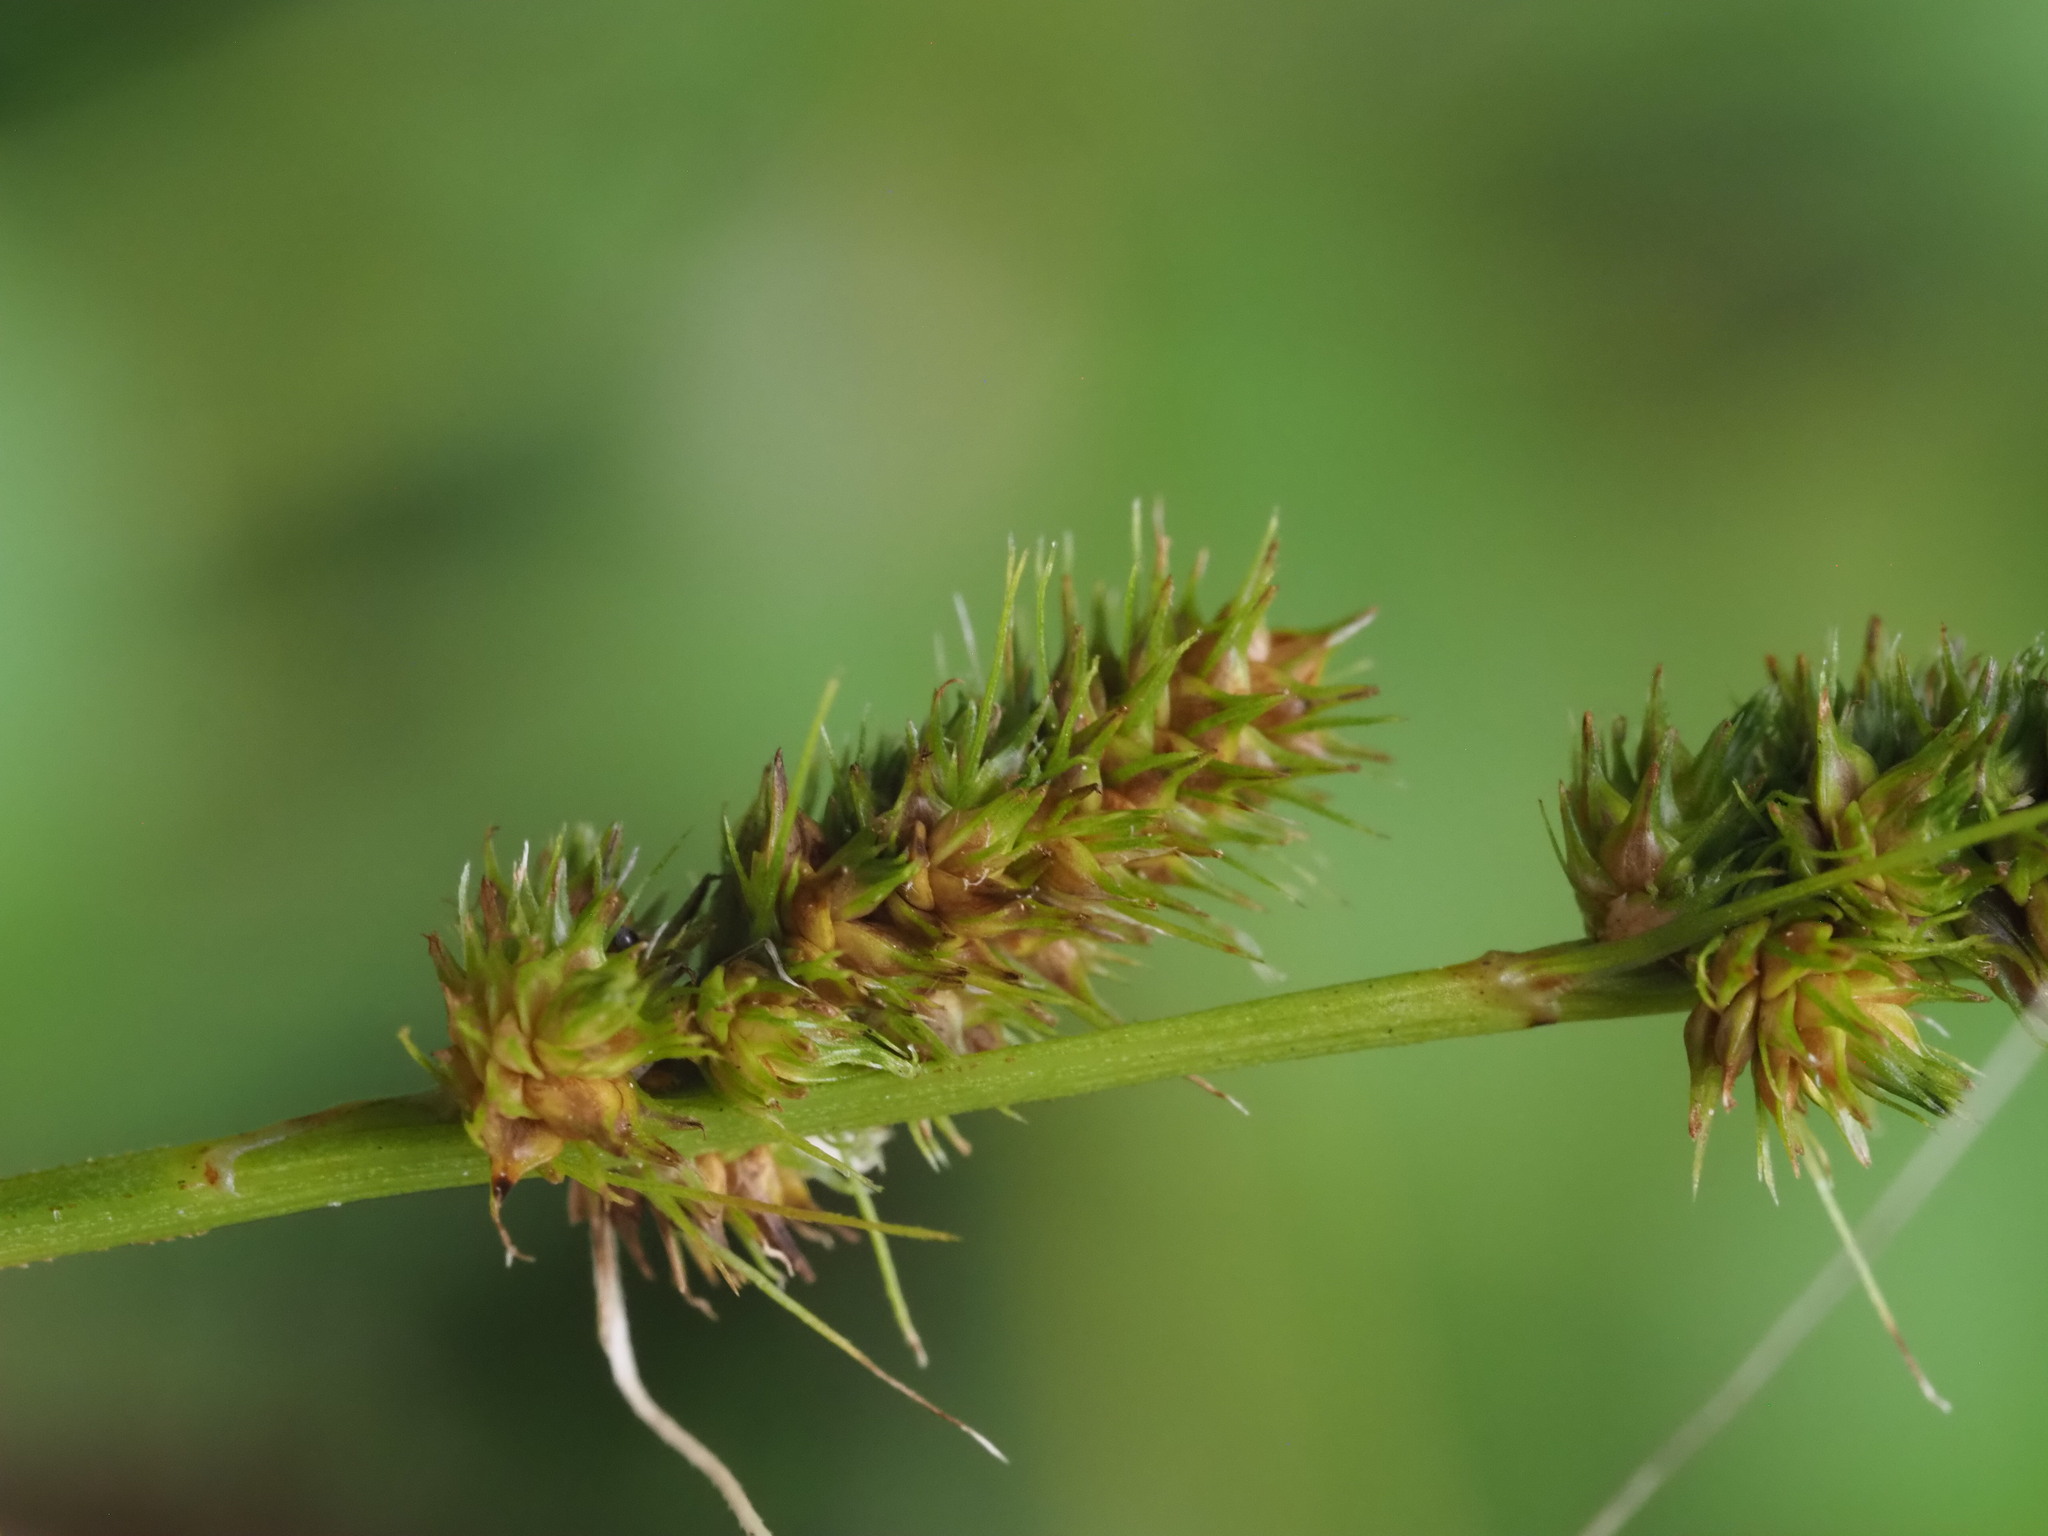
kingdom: Plantae
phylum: Tracheophyta
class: Liliopsida
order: Poales
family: Cyperaceae
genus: Carex
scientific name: Carex vulpinoidea
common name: American fox-sedge
